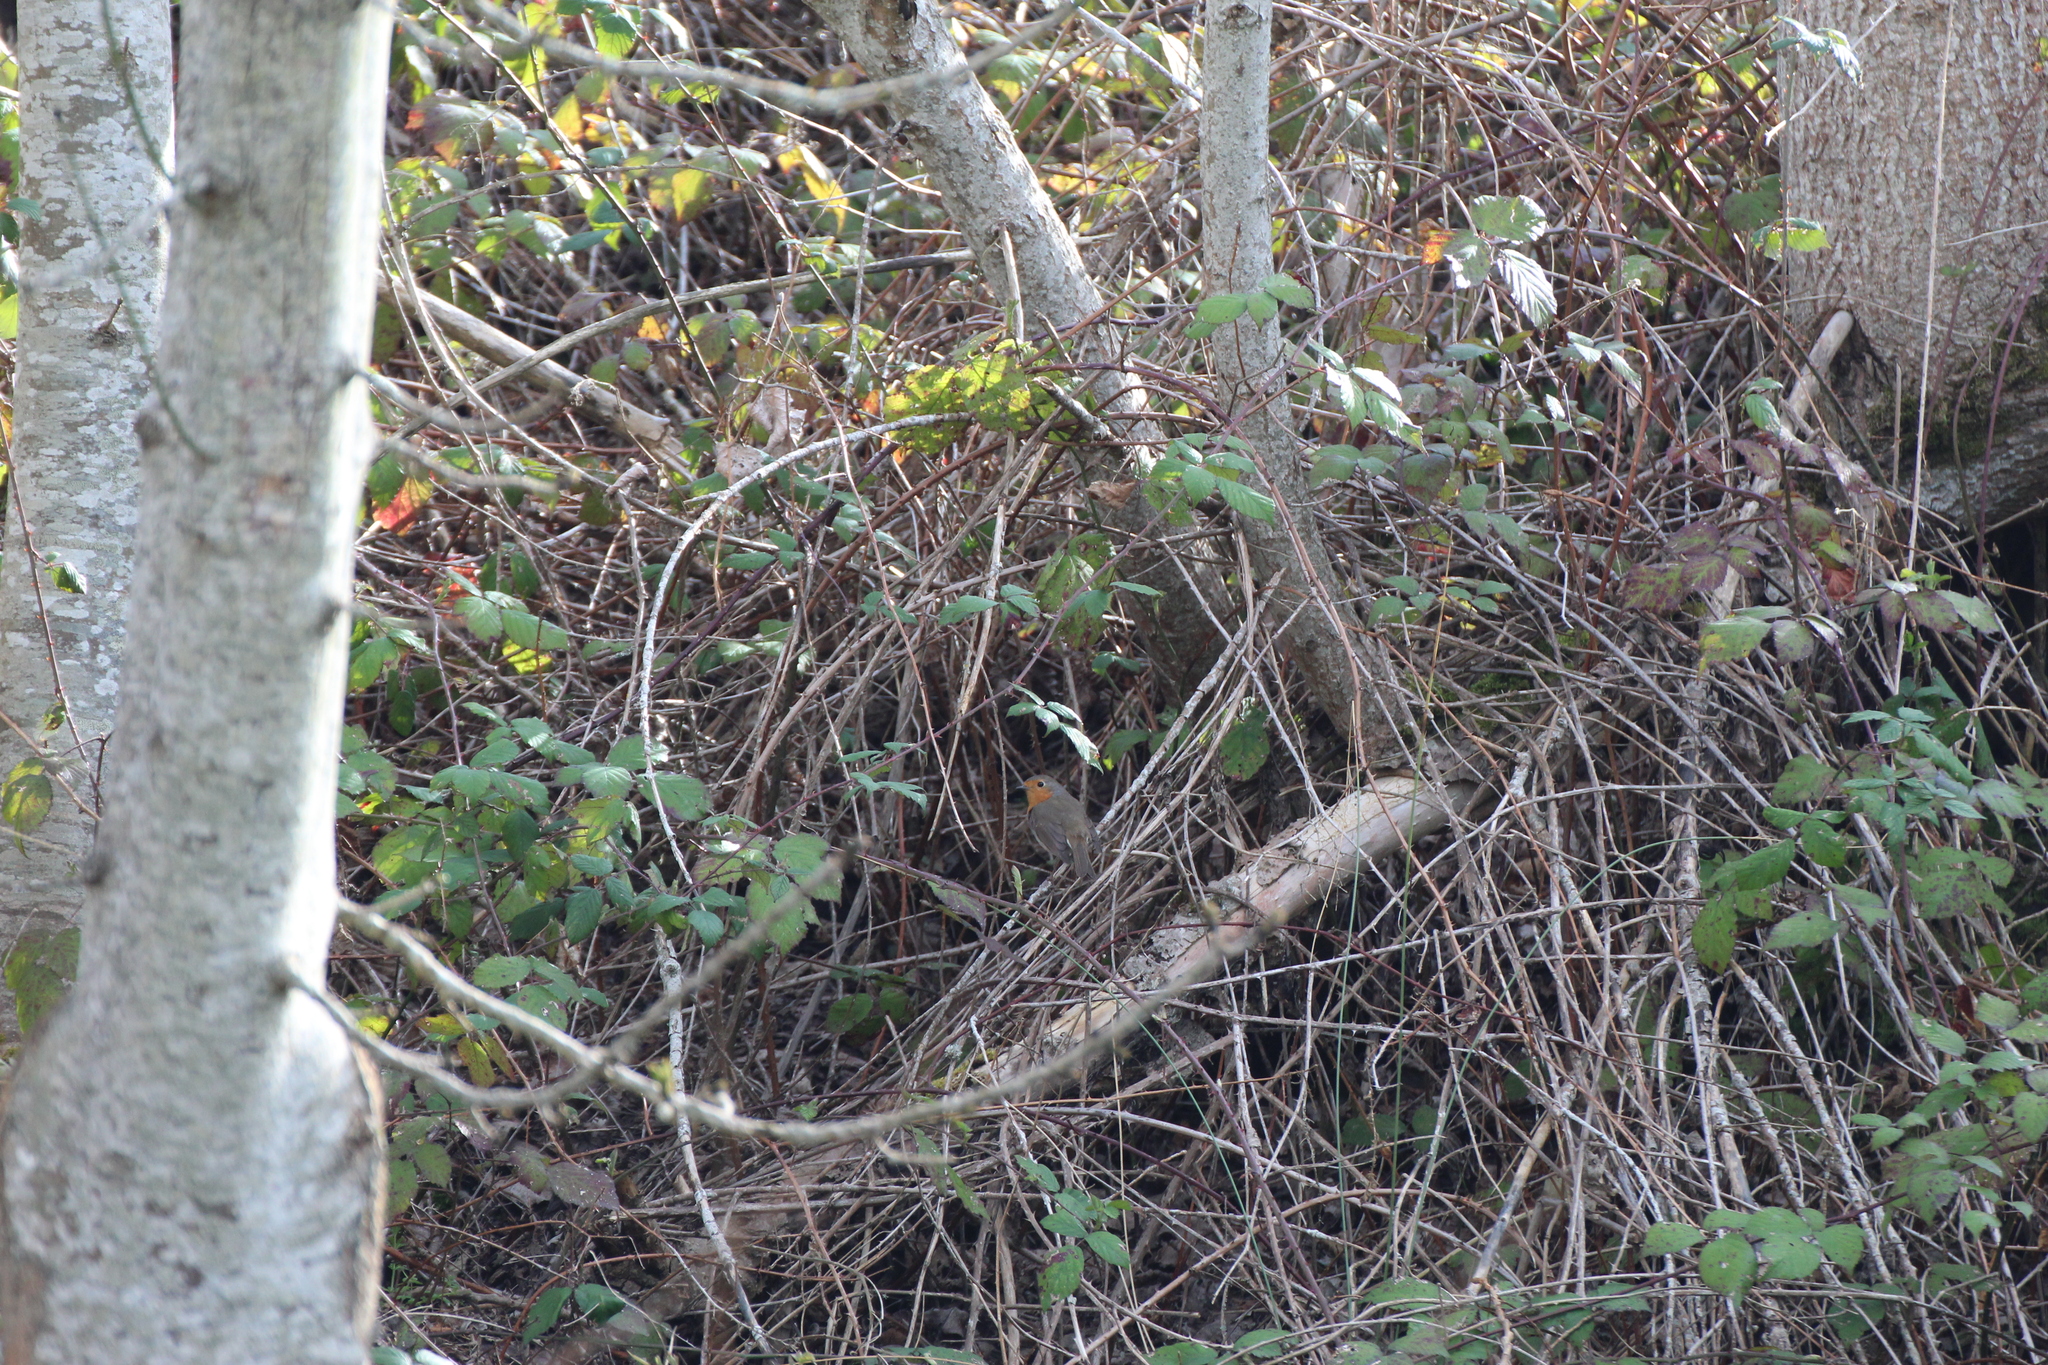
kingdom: Animalia
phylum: Chordata
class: Aves
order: Passeriformes
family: Muscicapidae
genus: Erithacus
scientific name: Erithacus rubecula
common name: European robin
